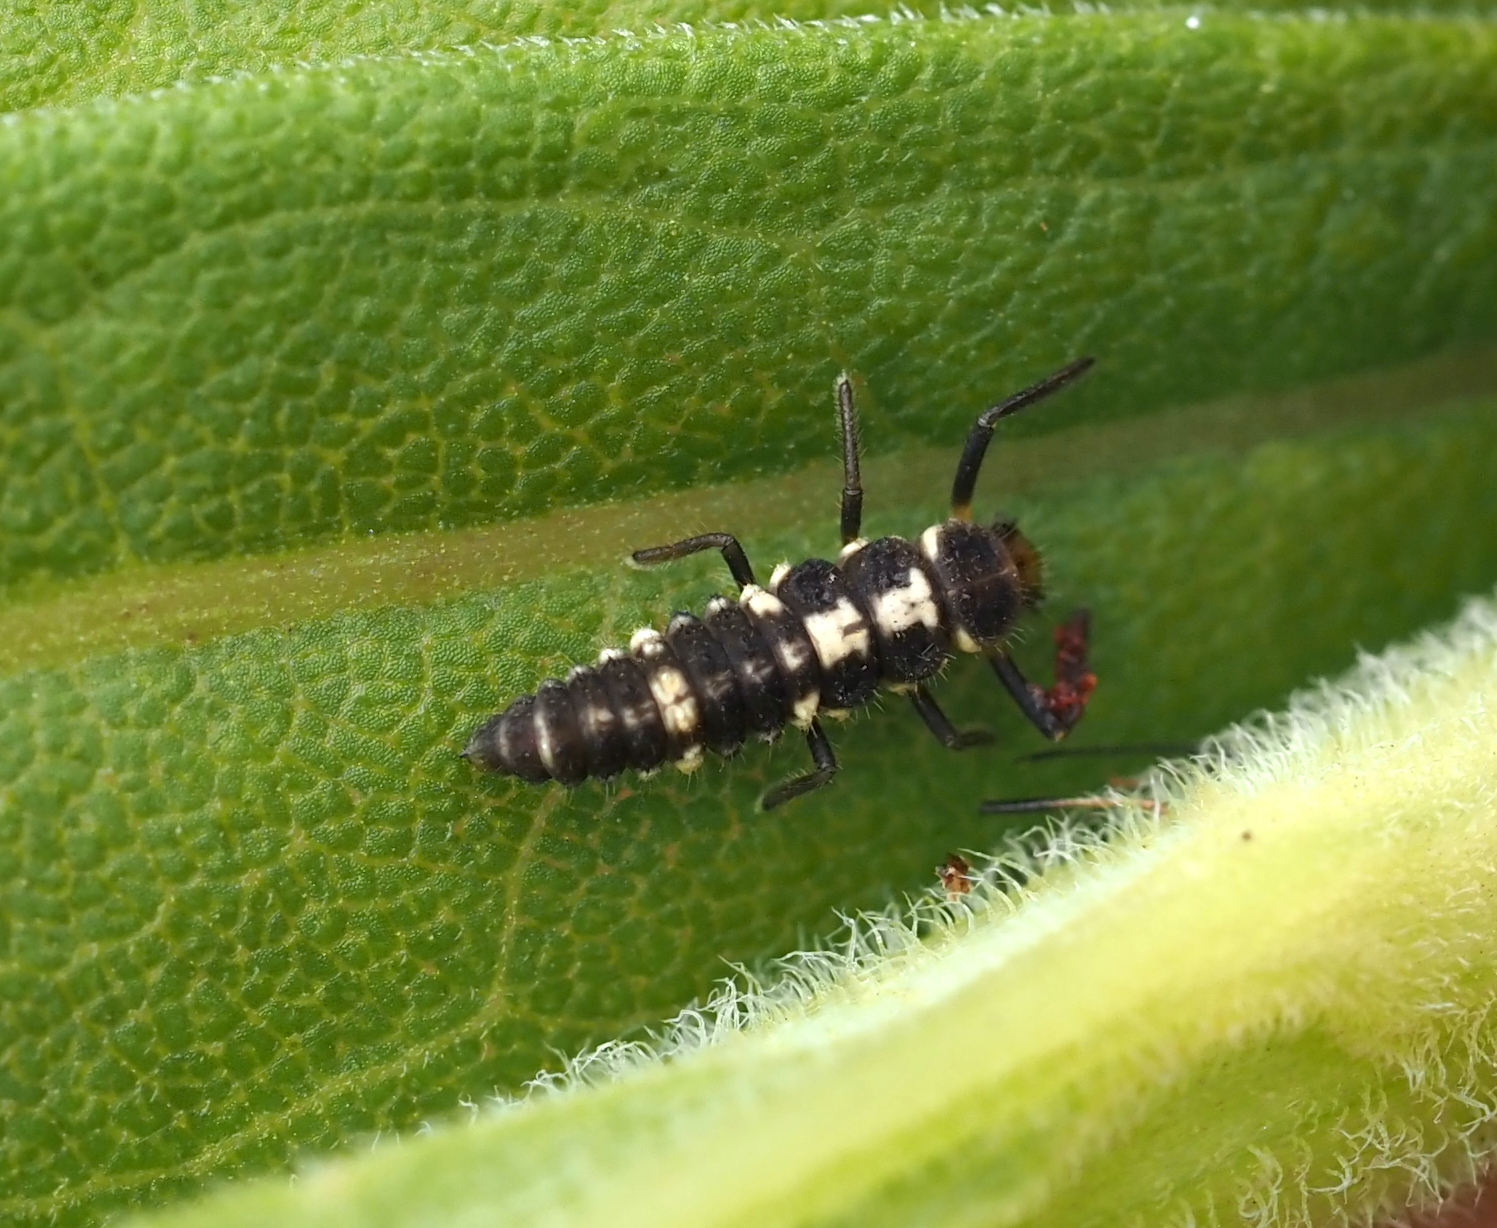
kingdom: Animalia
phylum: Arthropoda
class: Insecta
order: Coleoptera
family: Coccinellidae
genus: Propylaea
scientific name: Propylaea quatuordecimpunctata
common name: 14-spotted ladybird beetle
